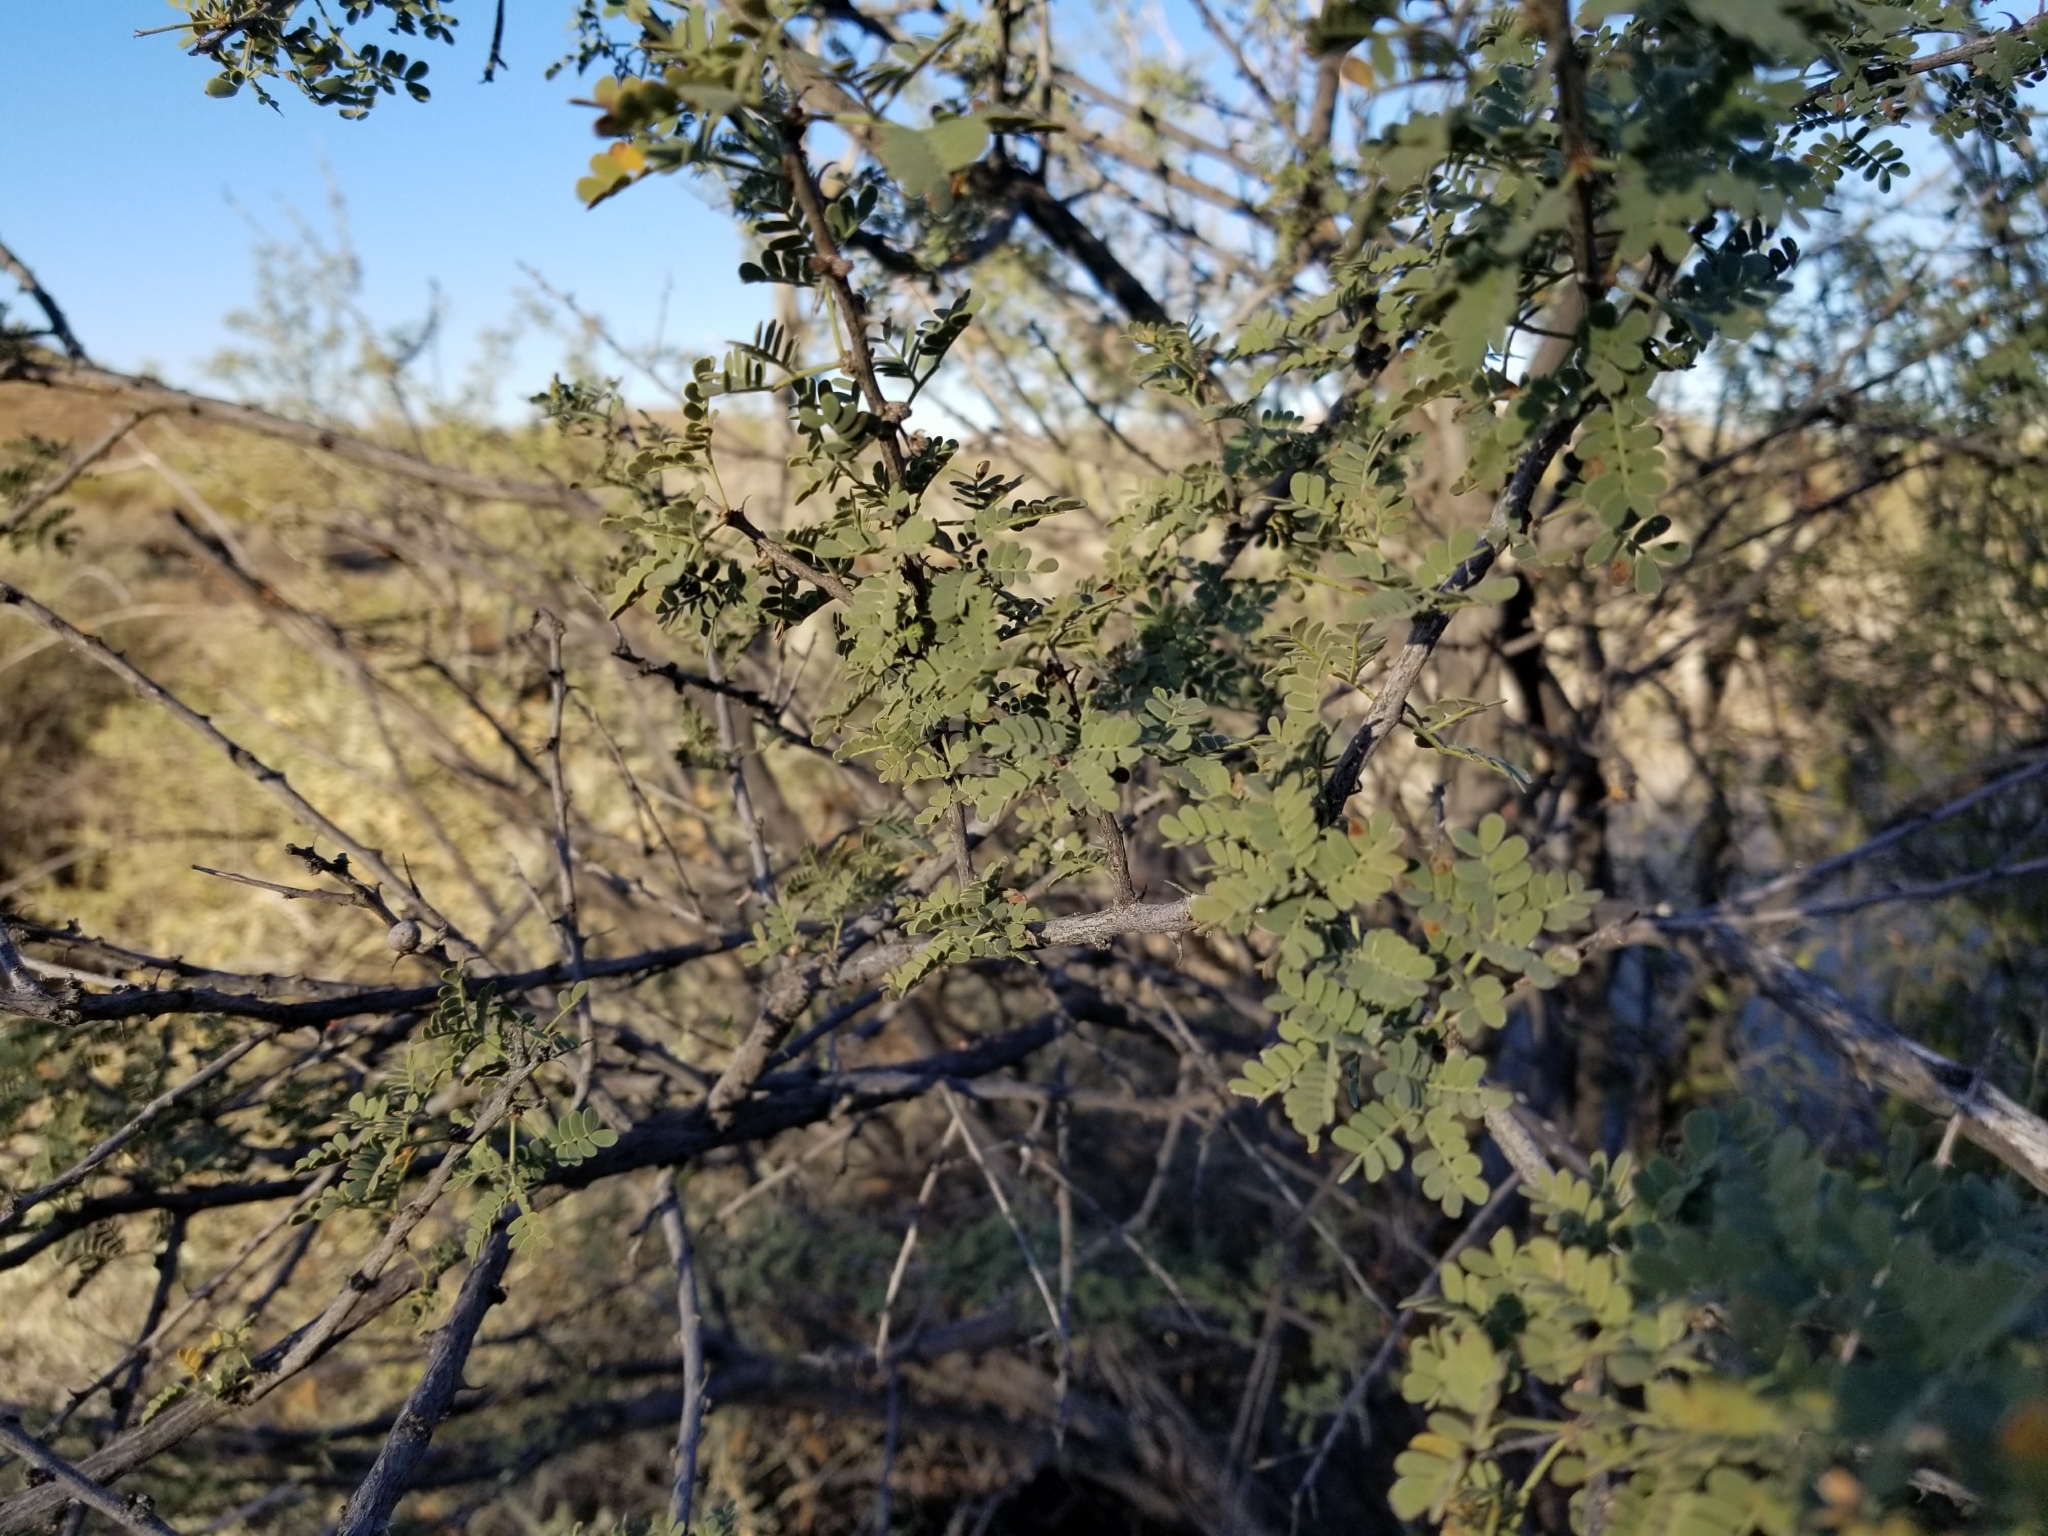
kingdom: Plantae
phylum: Tracheophyta
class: Magnoliopsida
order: Fabales
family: Fabaceae
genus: Senegalia
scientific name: Senegalia greggii
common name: Texas-mimosa
